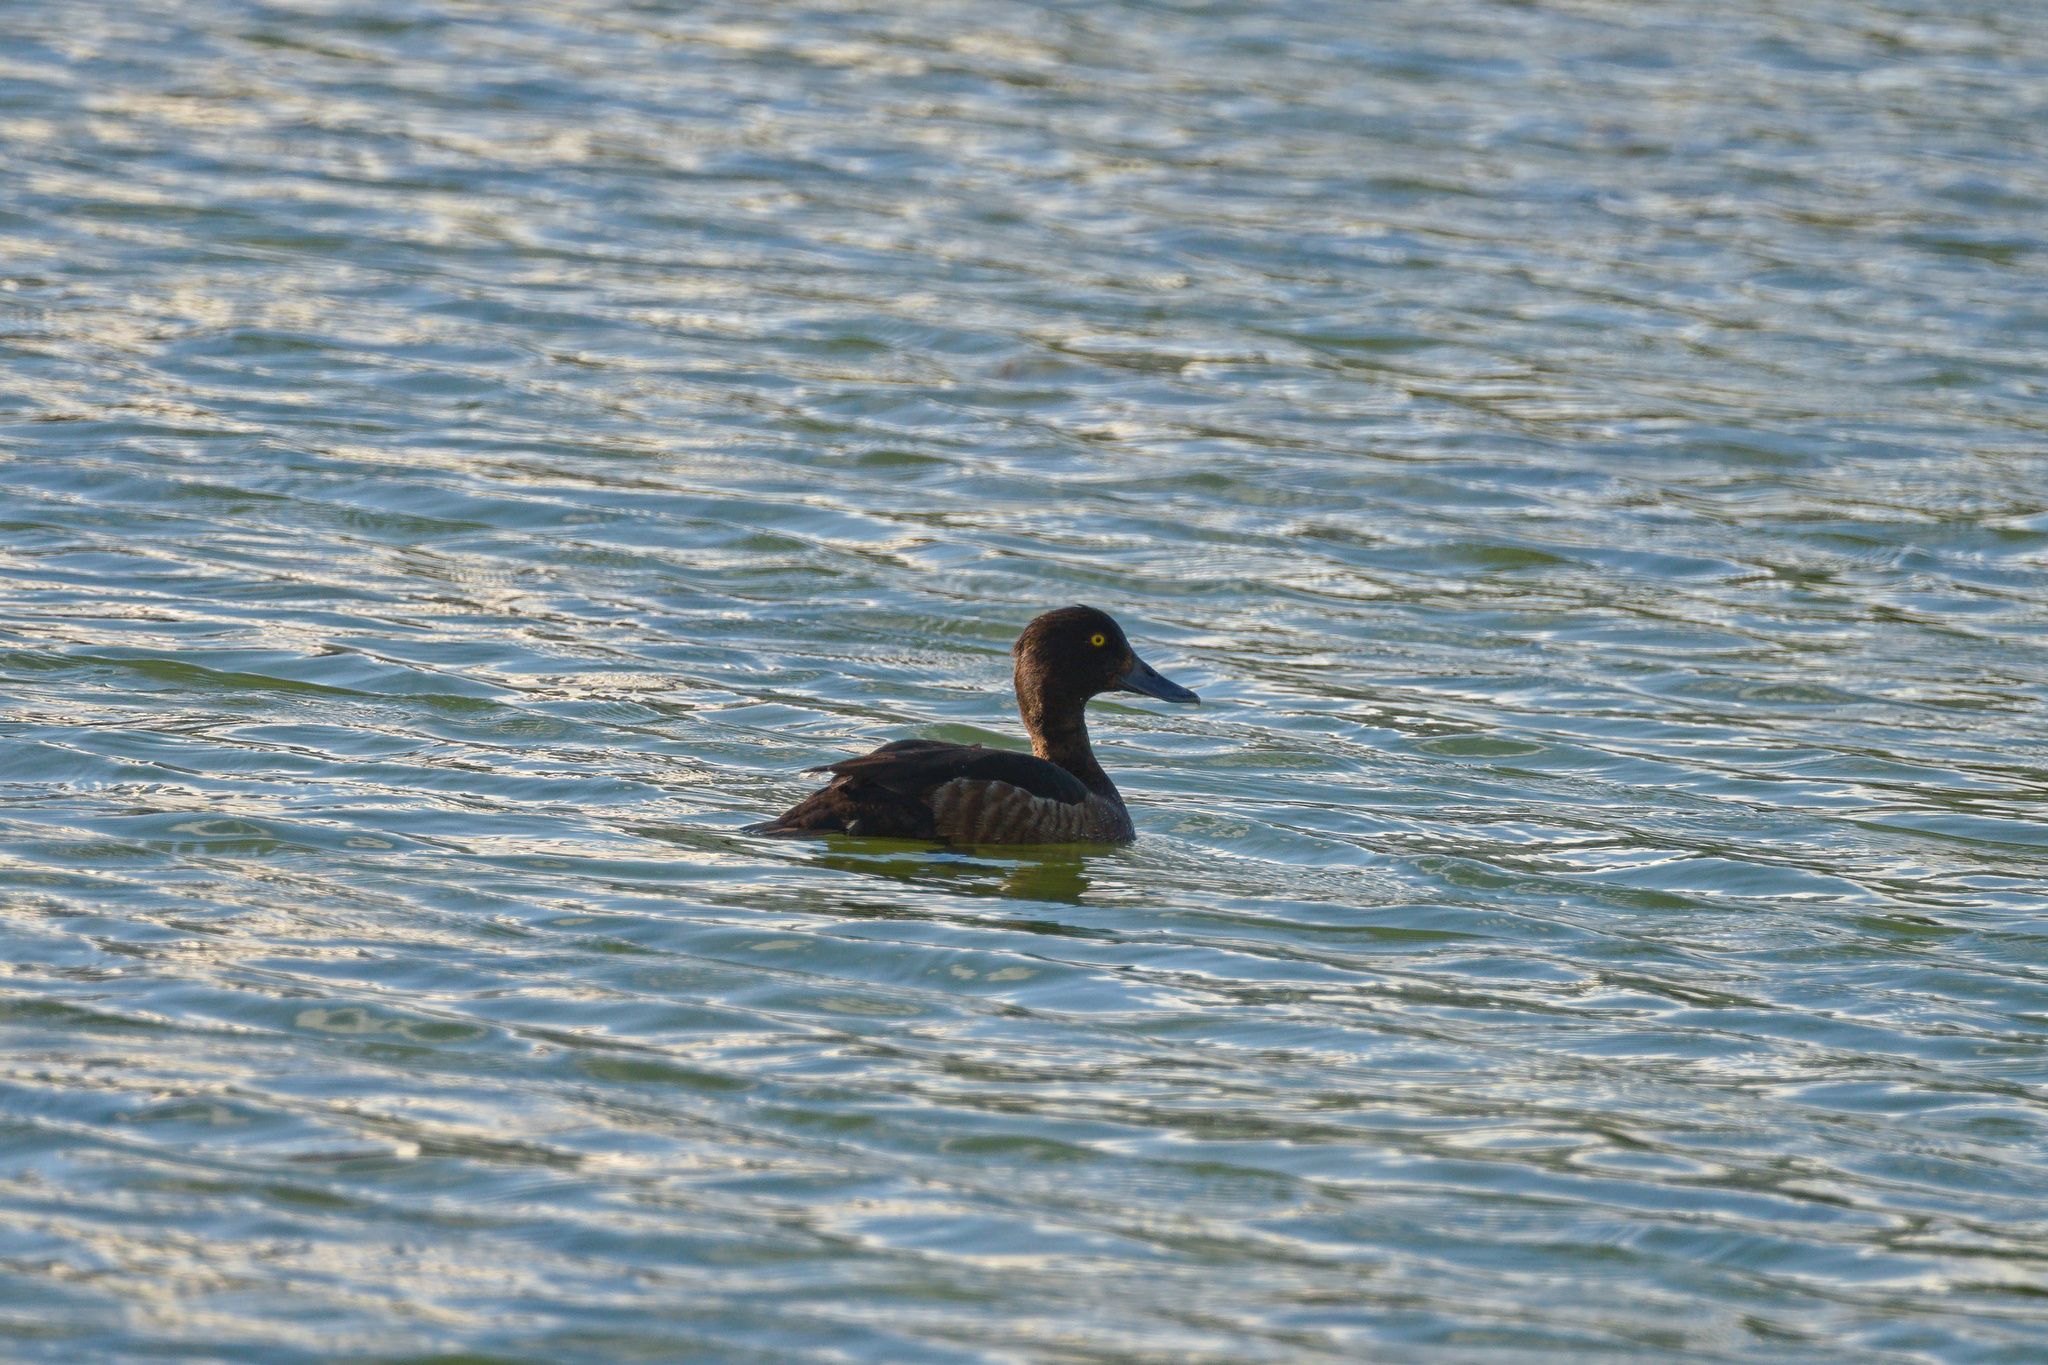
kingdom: Animalia
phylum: Chordata
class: Aves
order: Anseriformes
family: Anatidae
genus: Aythya
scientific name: Aythya fuligula
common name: Tufted duck
